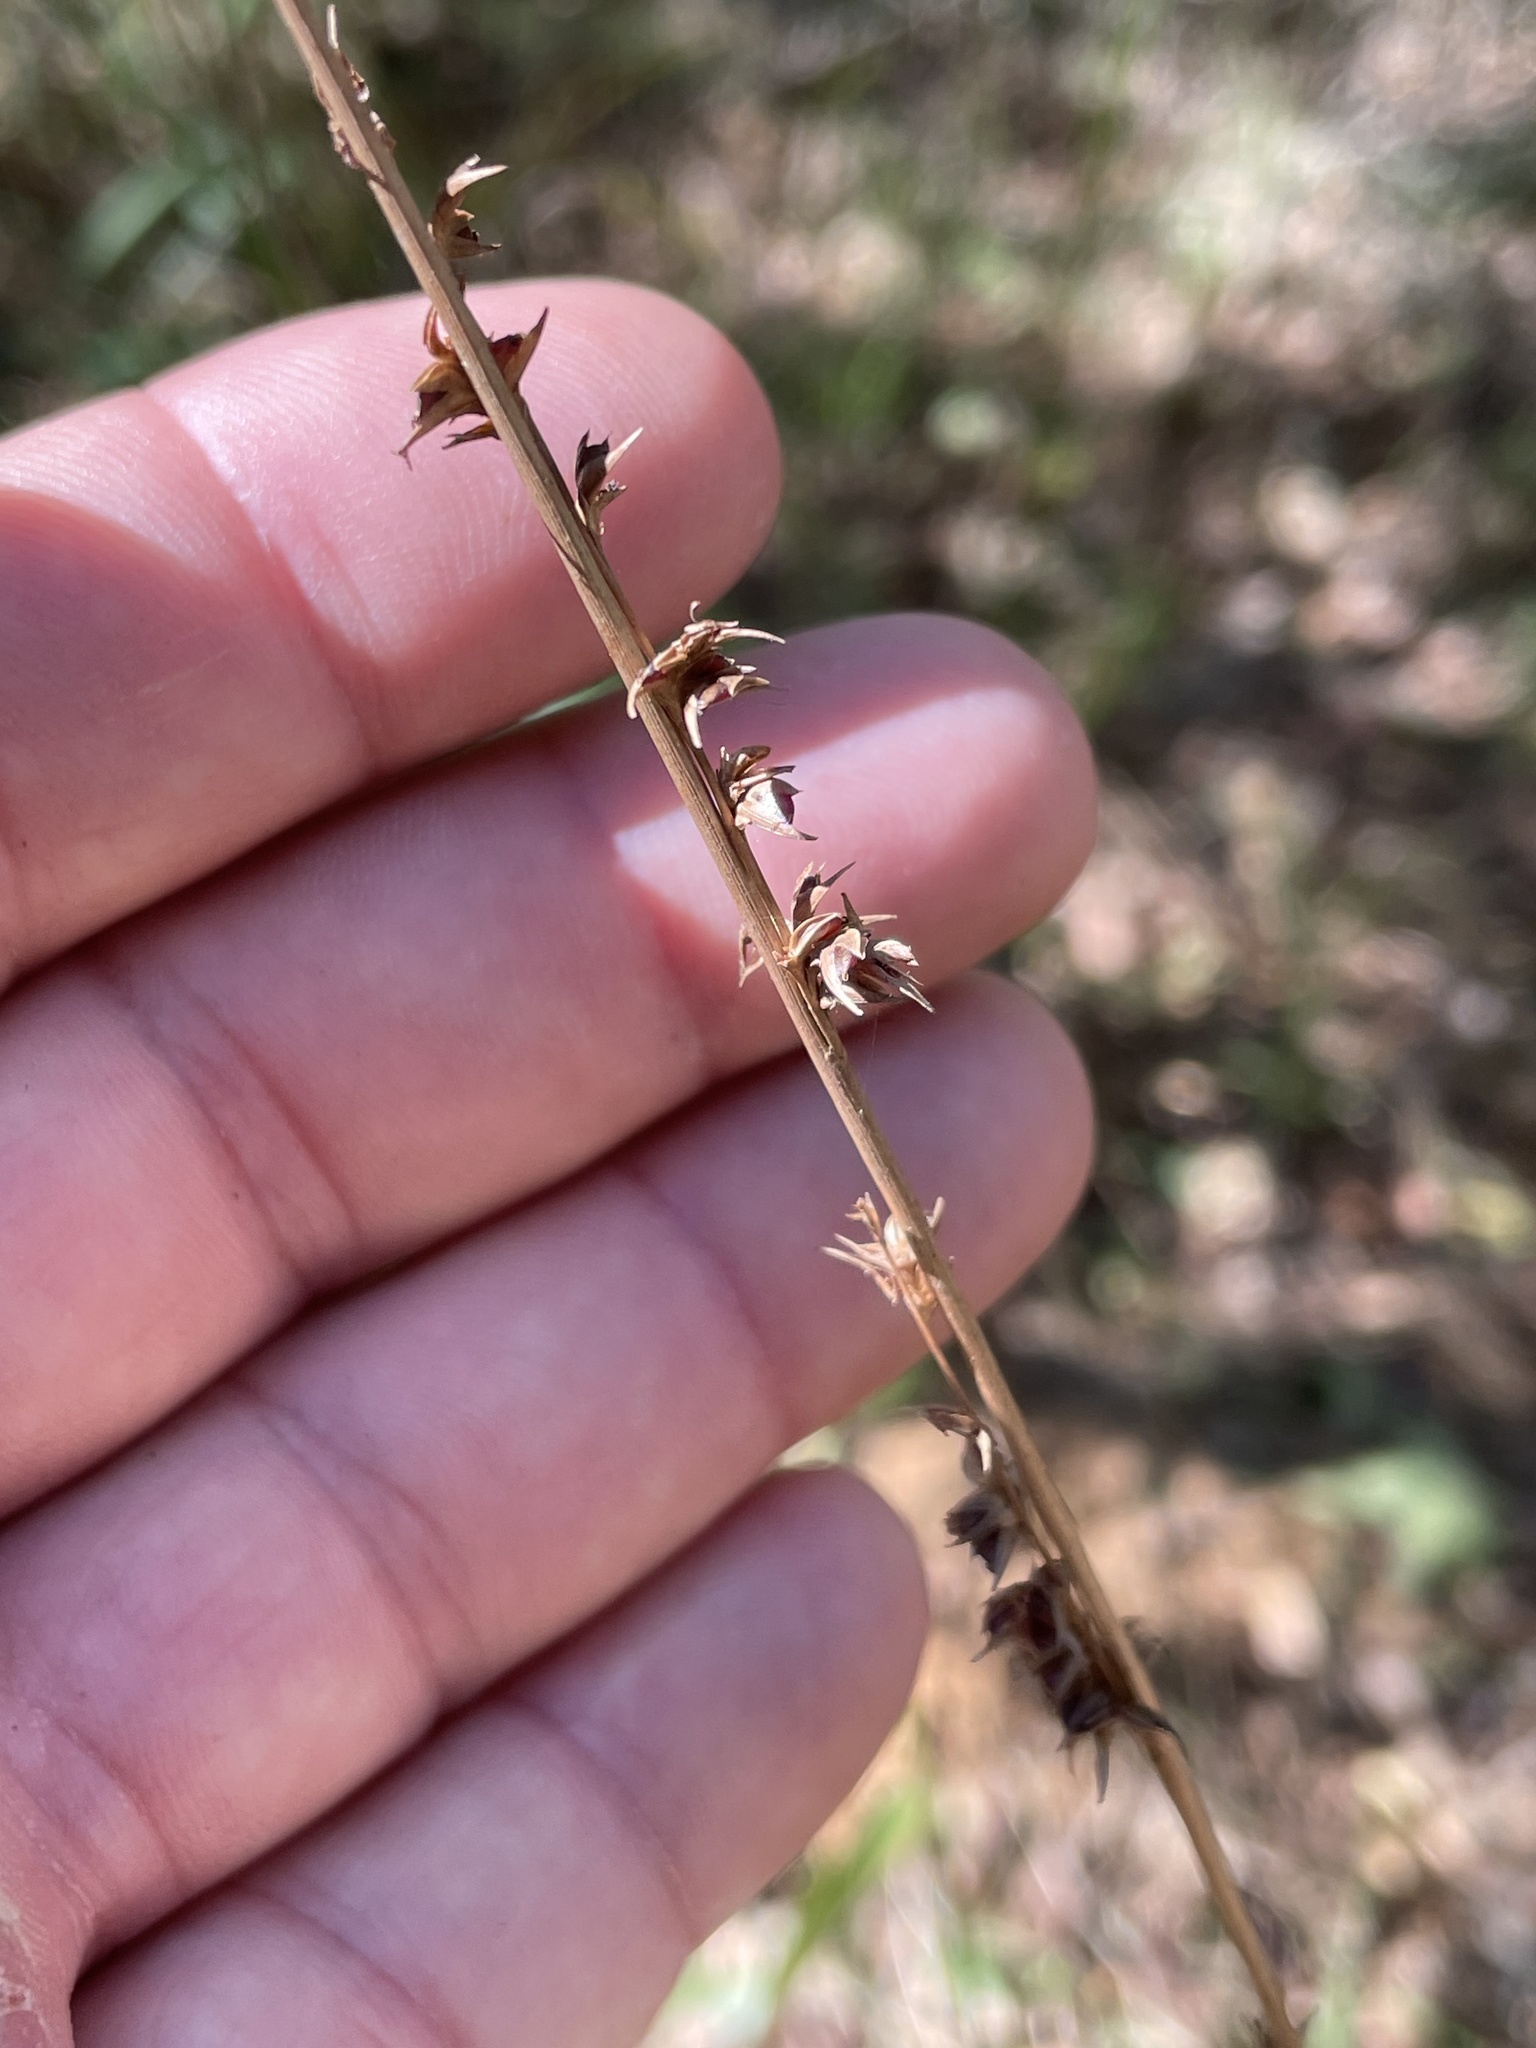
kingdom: Plantae
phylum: Tracheophyta
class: Liliopsida
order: Poales
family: Poaceae
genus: Chasmanthium
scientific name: Chasmanthium laxum
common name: Slender chasmanthium
